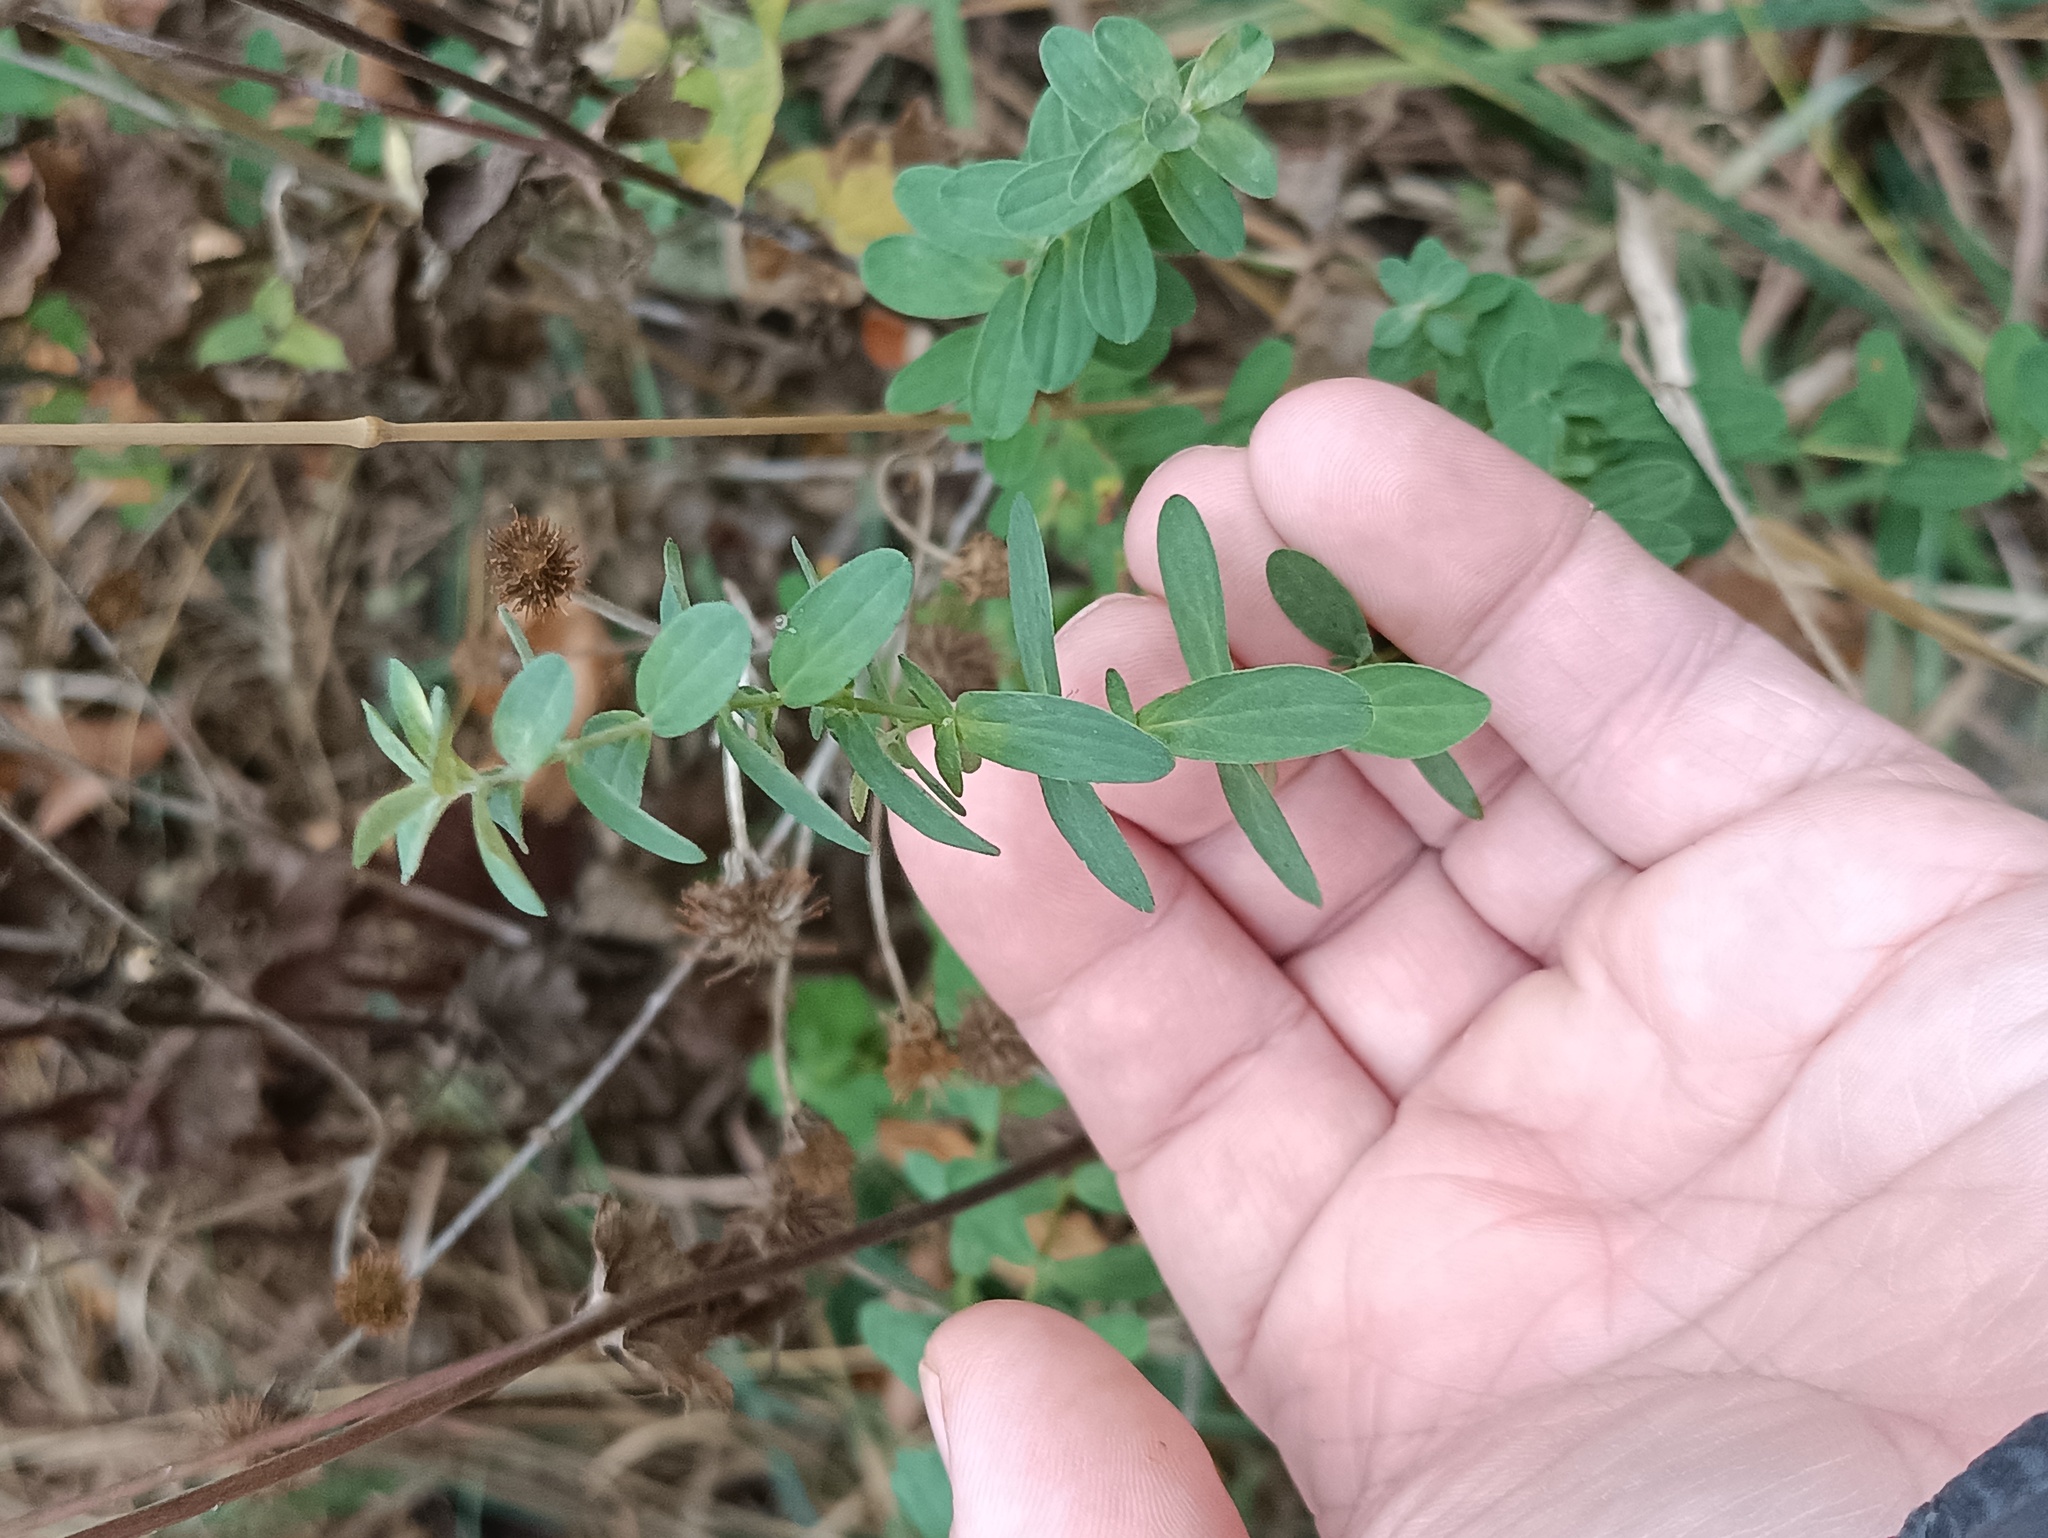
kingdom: Plantae
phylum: Tracheophyta
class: Magnoliopsida
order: Malpighiales
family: Hypericaceae
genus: Hypericum
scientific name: Hypericum perforatum
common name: Common st. johnswort
